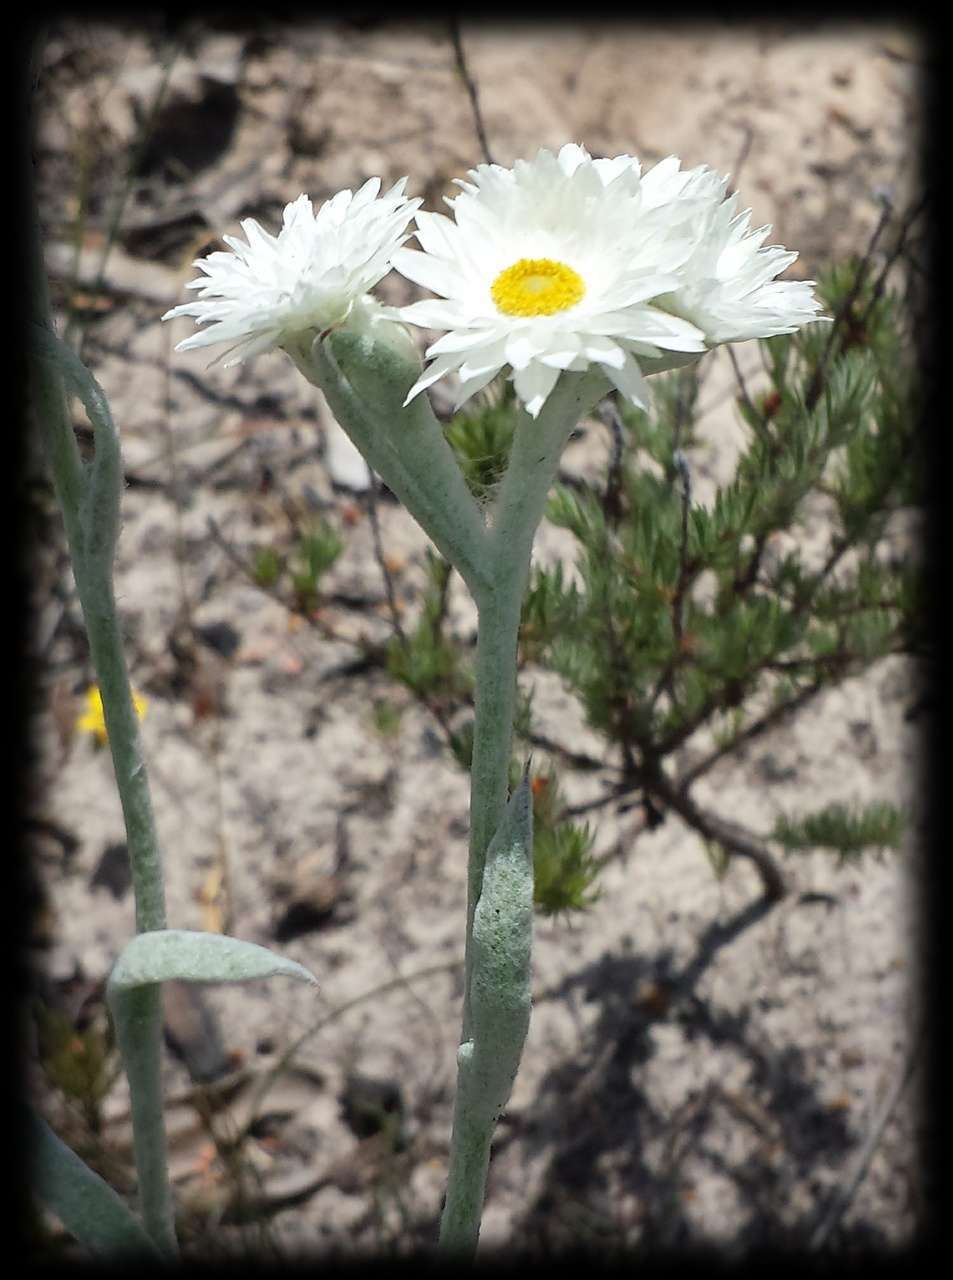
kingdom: Plantae
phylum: Tracheophyta
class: Magnoliopsida
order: Asterales
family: Asteraceae
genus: Argentipallium
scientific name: Argentipallium blandowskianum
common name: Woolly everlasting
